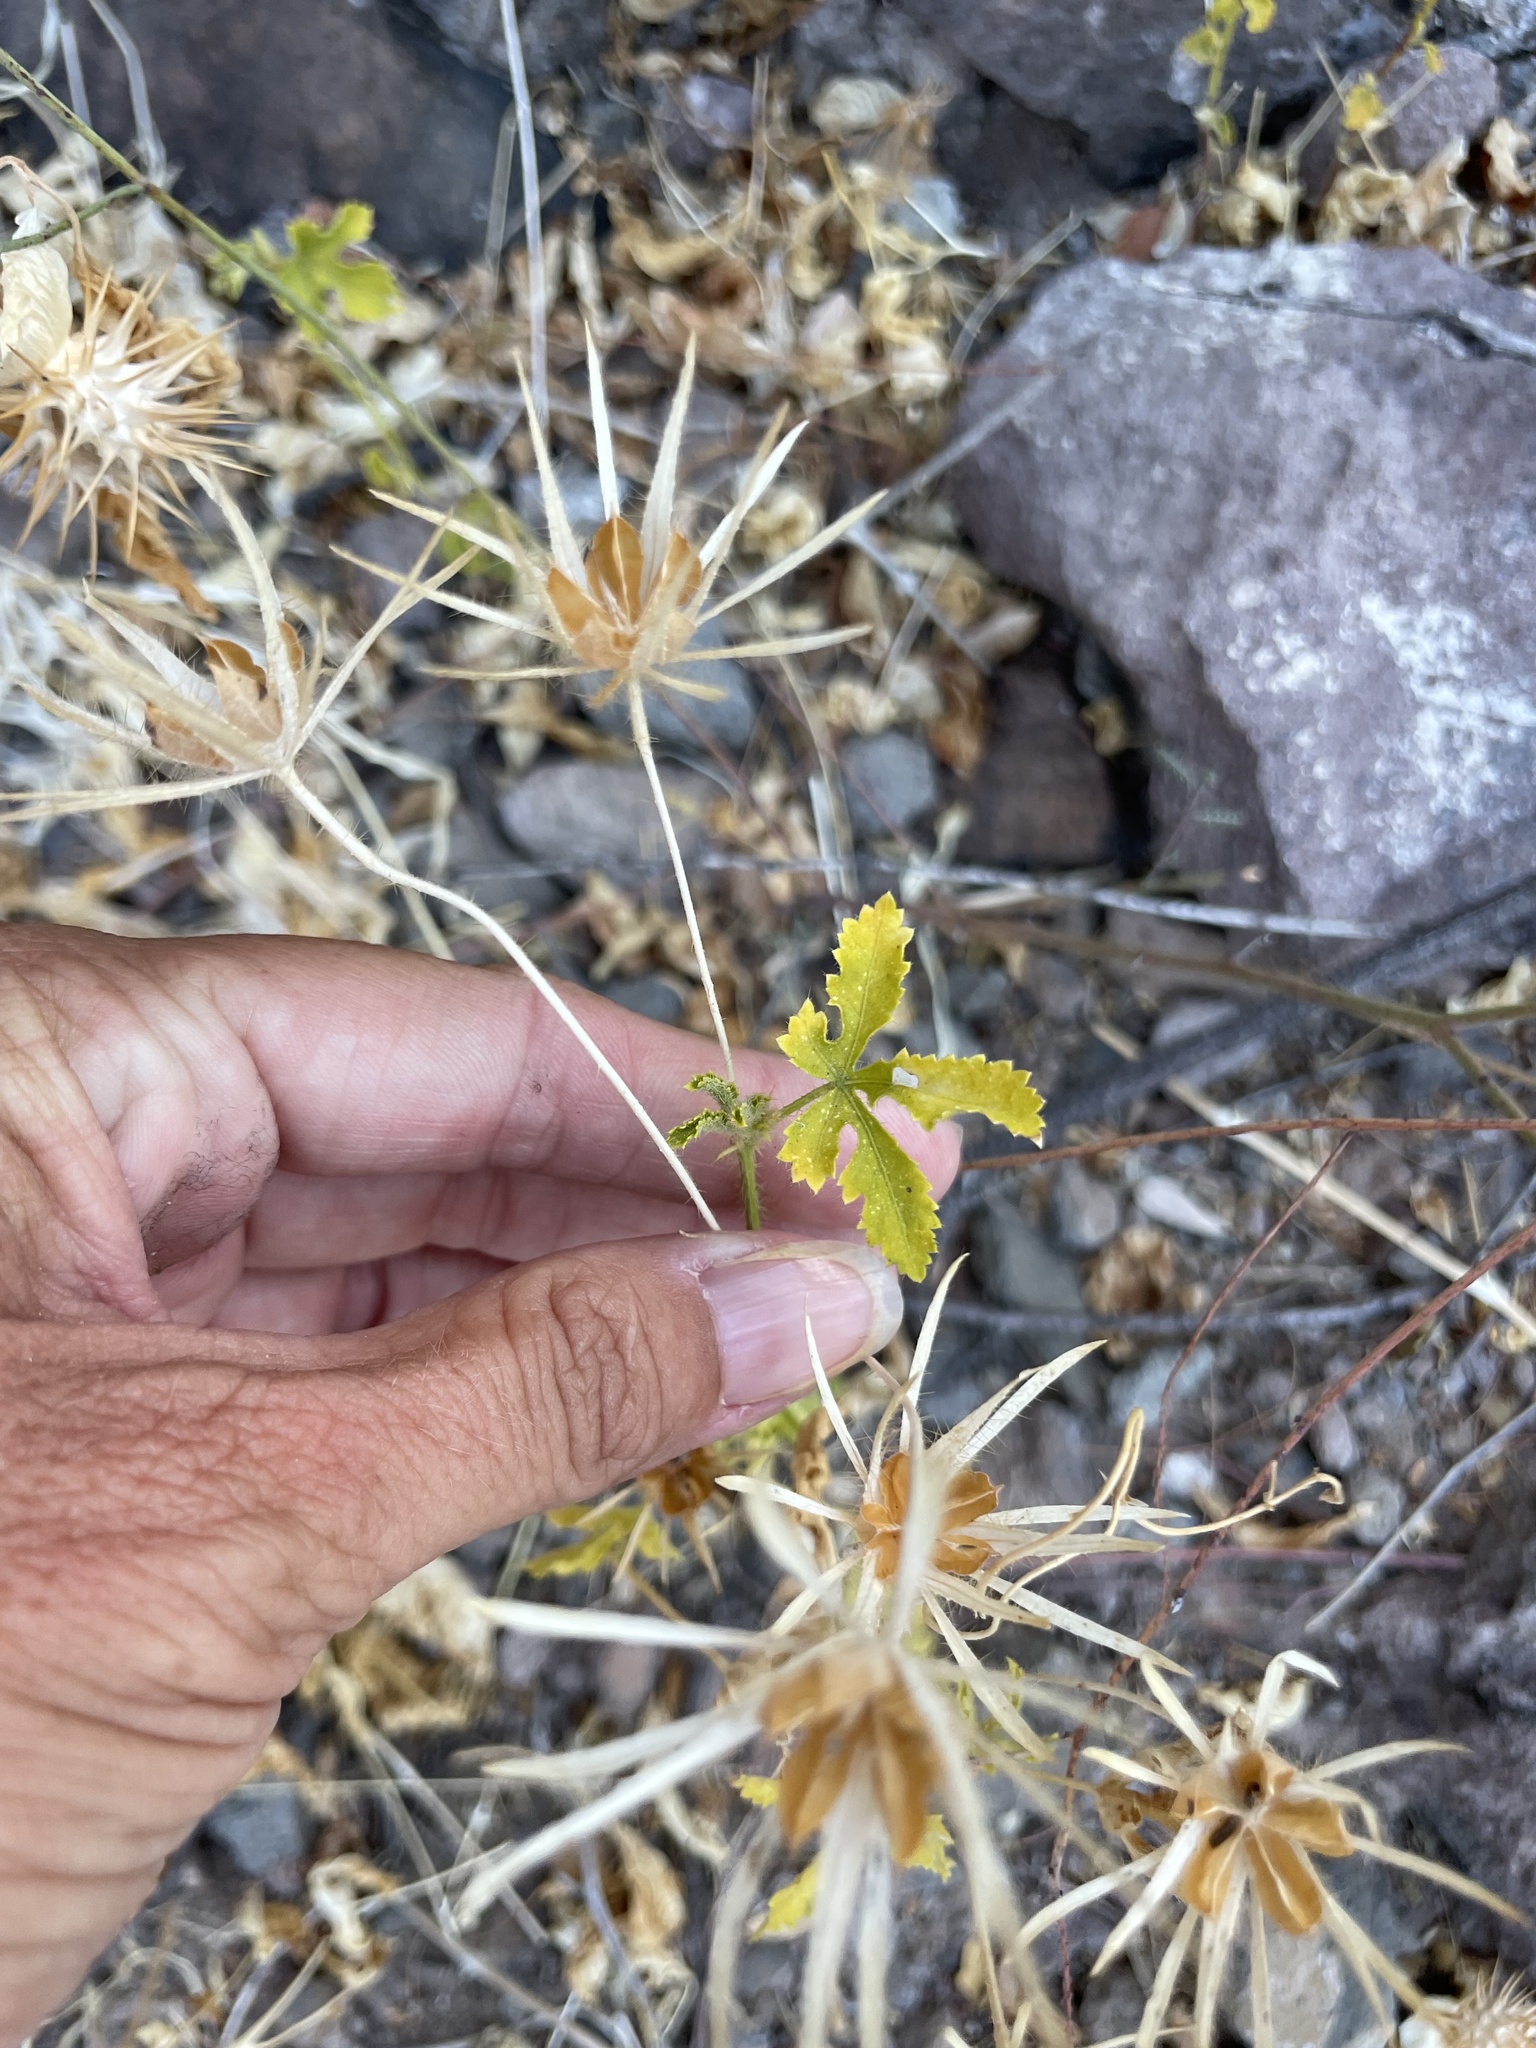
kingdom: Plantae
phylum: Tracheophyta
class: Magnoliopsida
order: Malvales
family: Malvaceae
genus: Hibiscus
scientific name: Hibiscus biseptus
